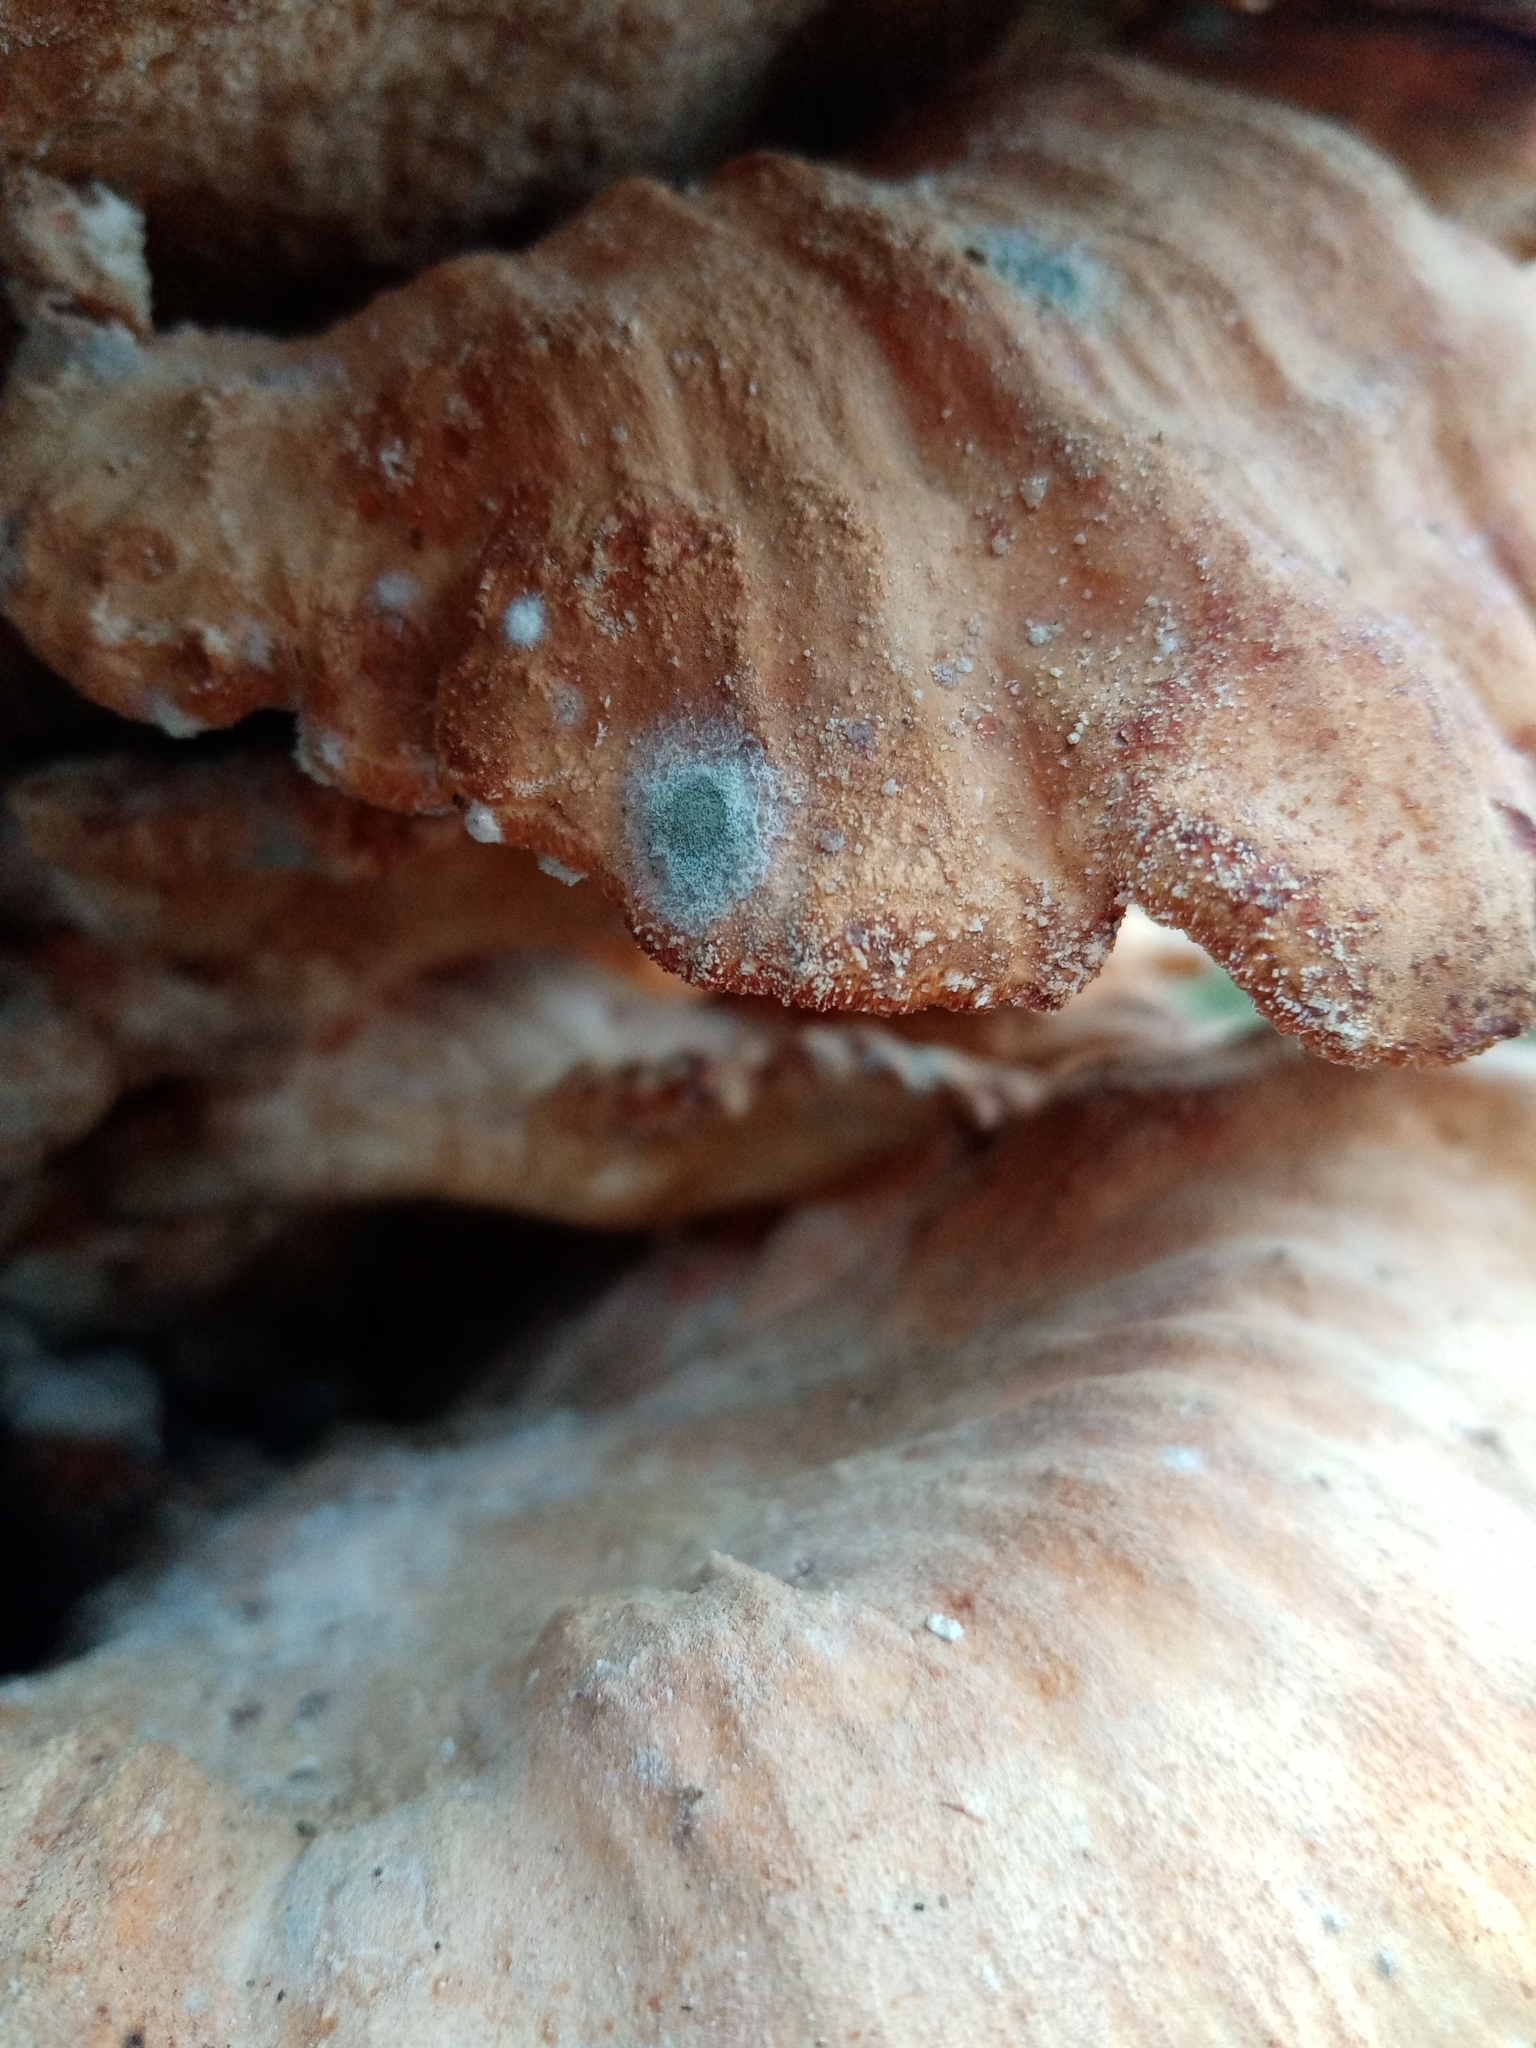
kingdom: Fungi
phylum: Ascomycota
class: Leotiomycetes
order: Helotiales
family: Sclerotiniaceae
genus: Botrytis
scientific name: Botrytis cinerea
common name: Grey mould
